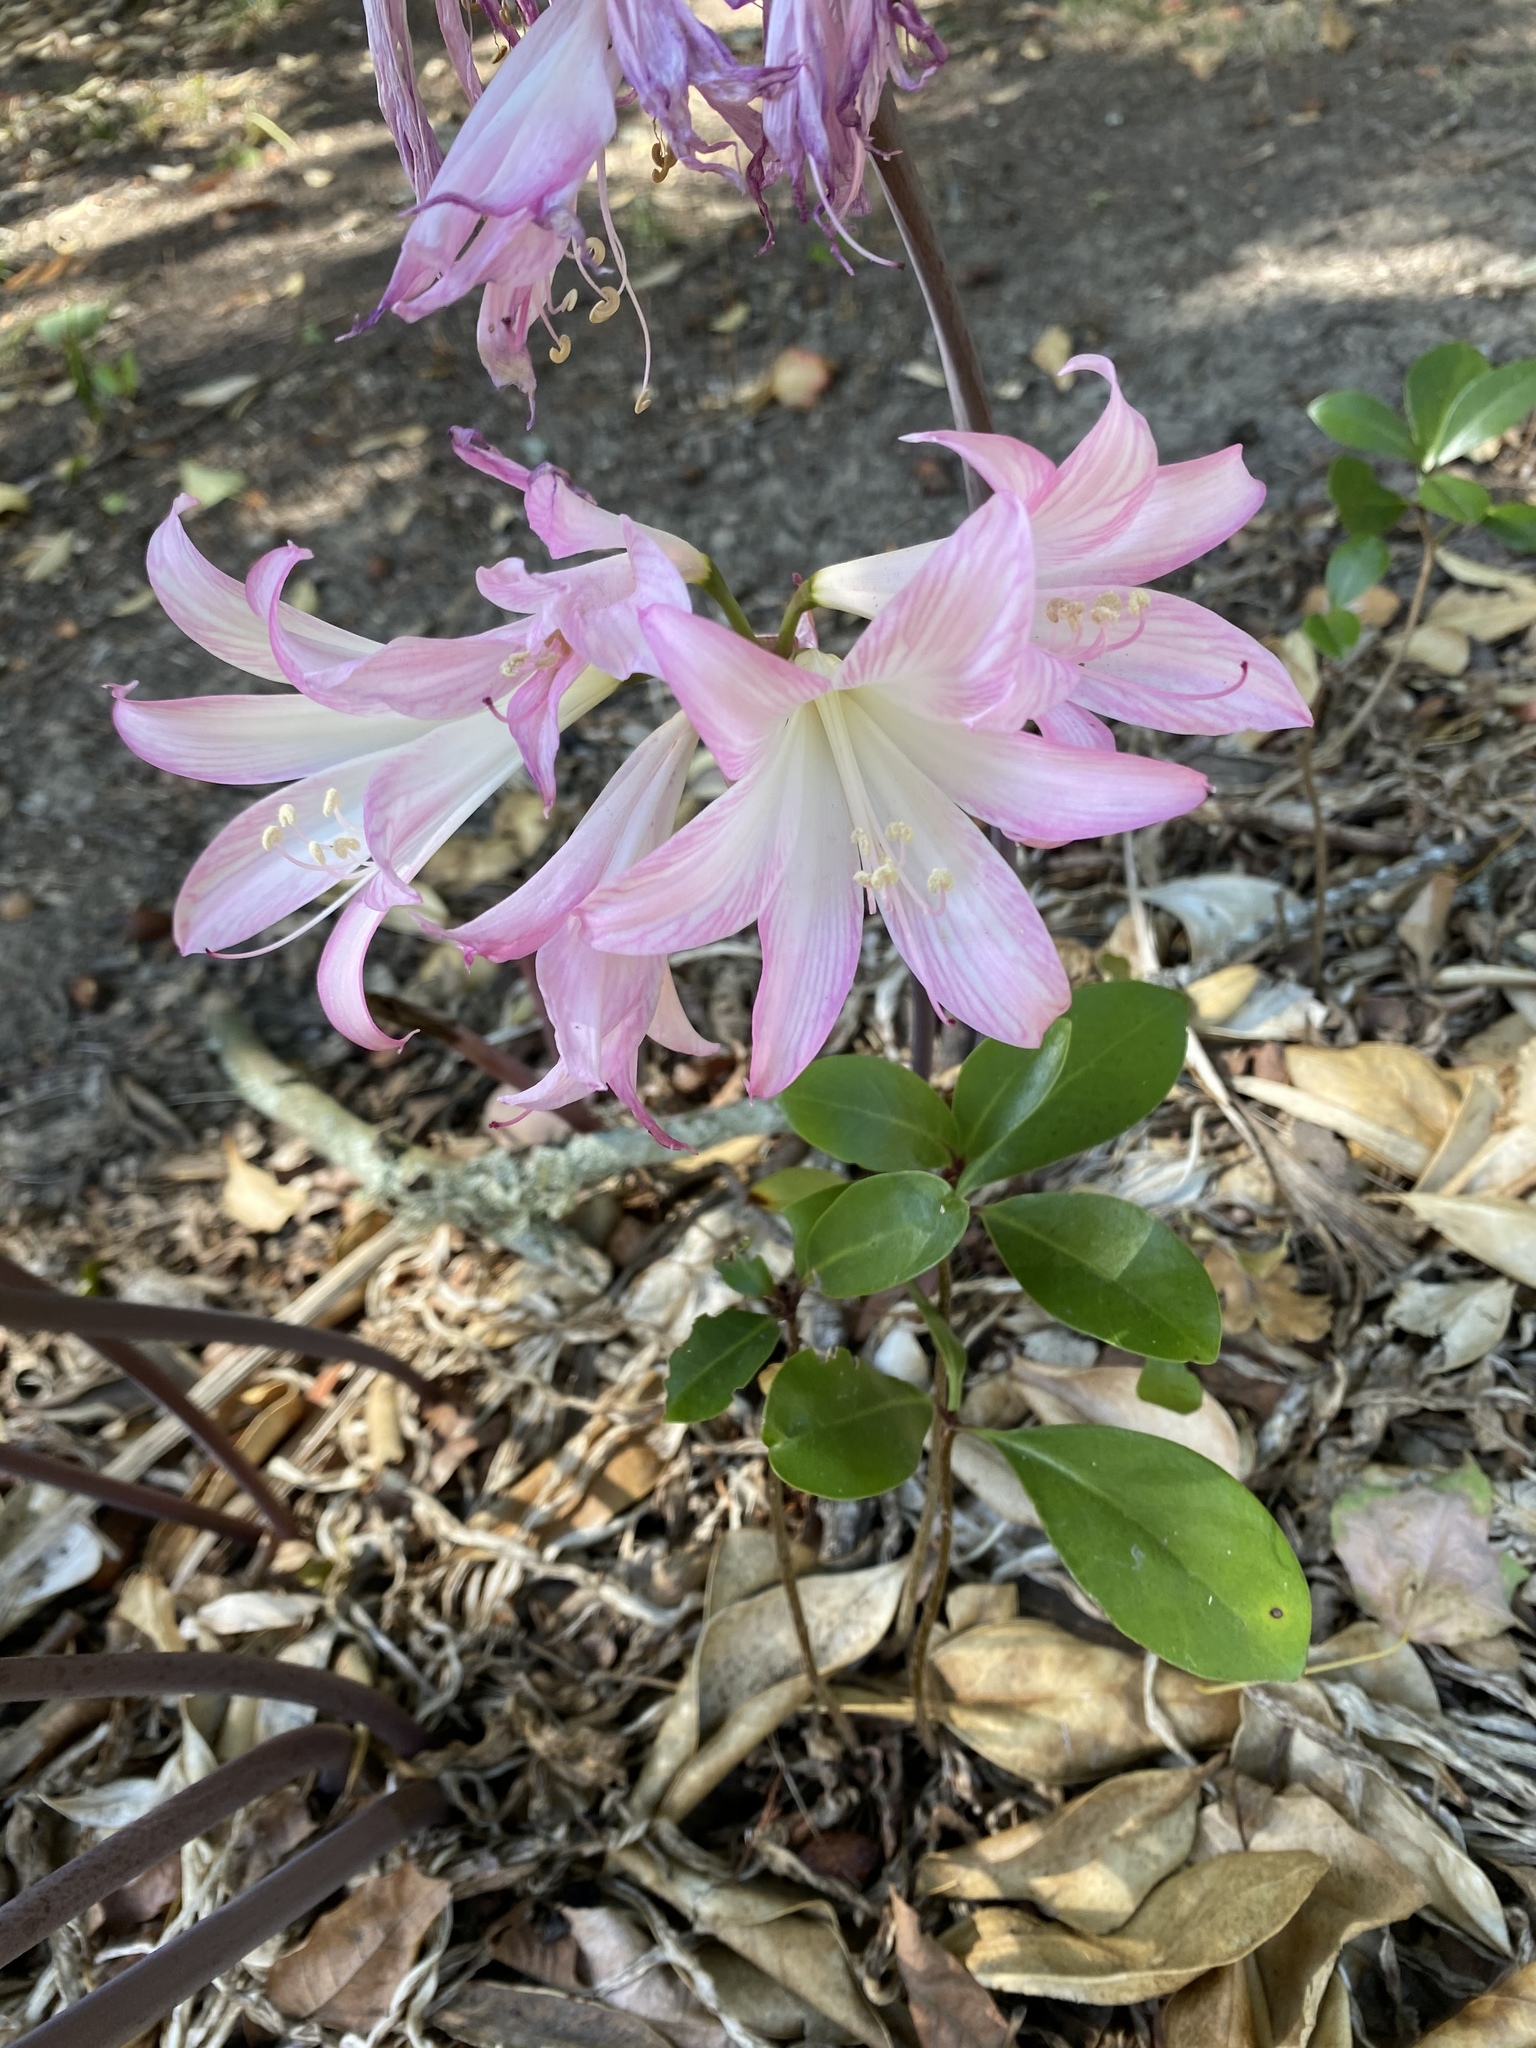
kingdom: Plantae
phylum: Tracheophyta
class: Liliopsida
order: Asparagales
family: Amaryllidaceae
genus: Amaryllis
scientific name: Amaryllis belladonna
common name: Jersey lily
